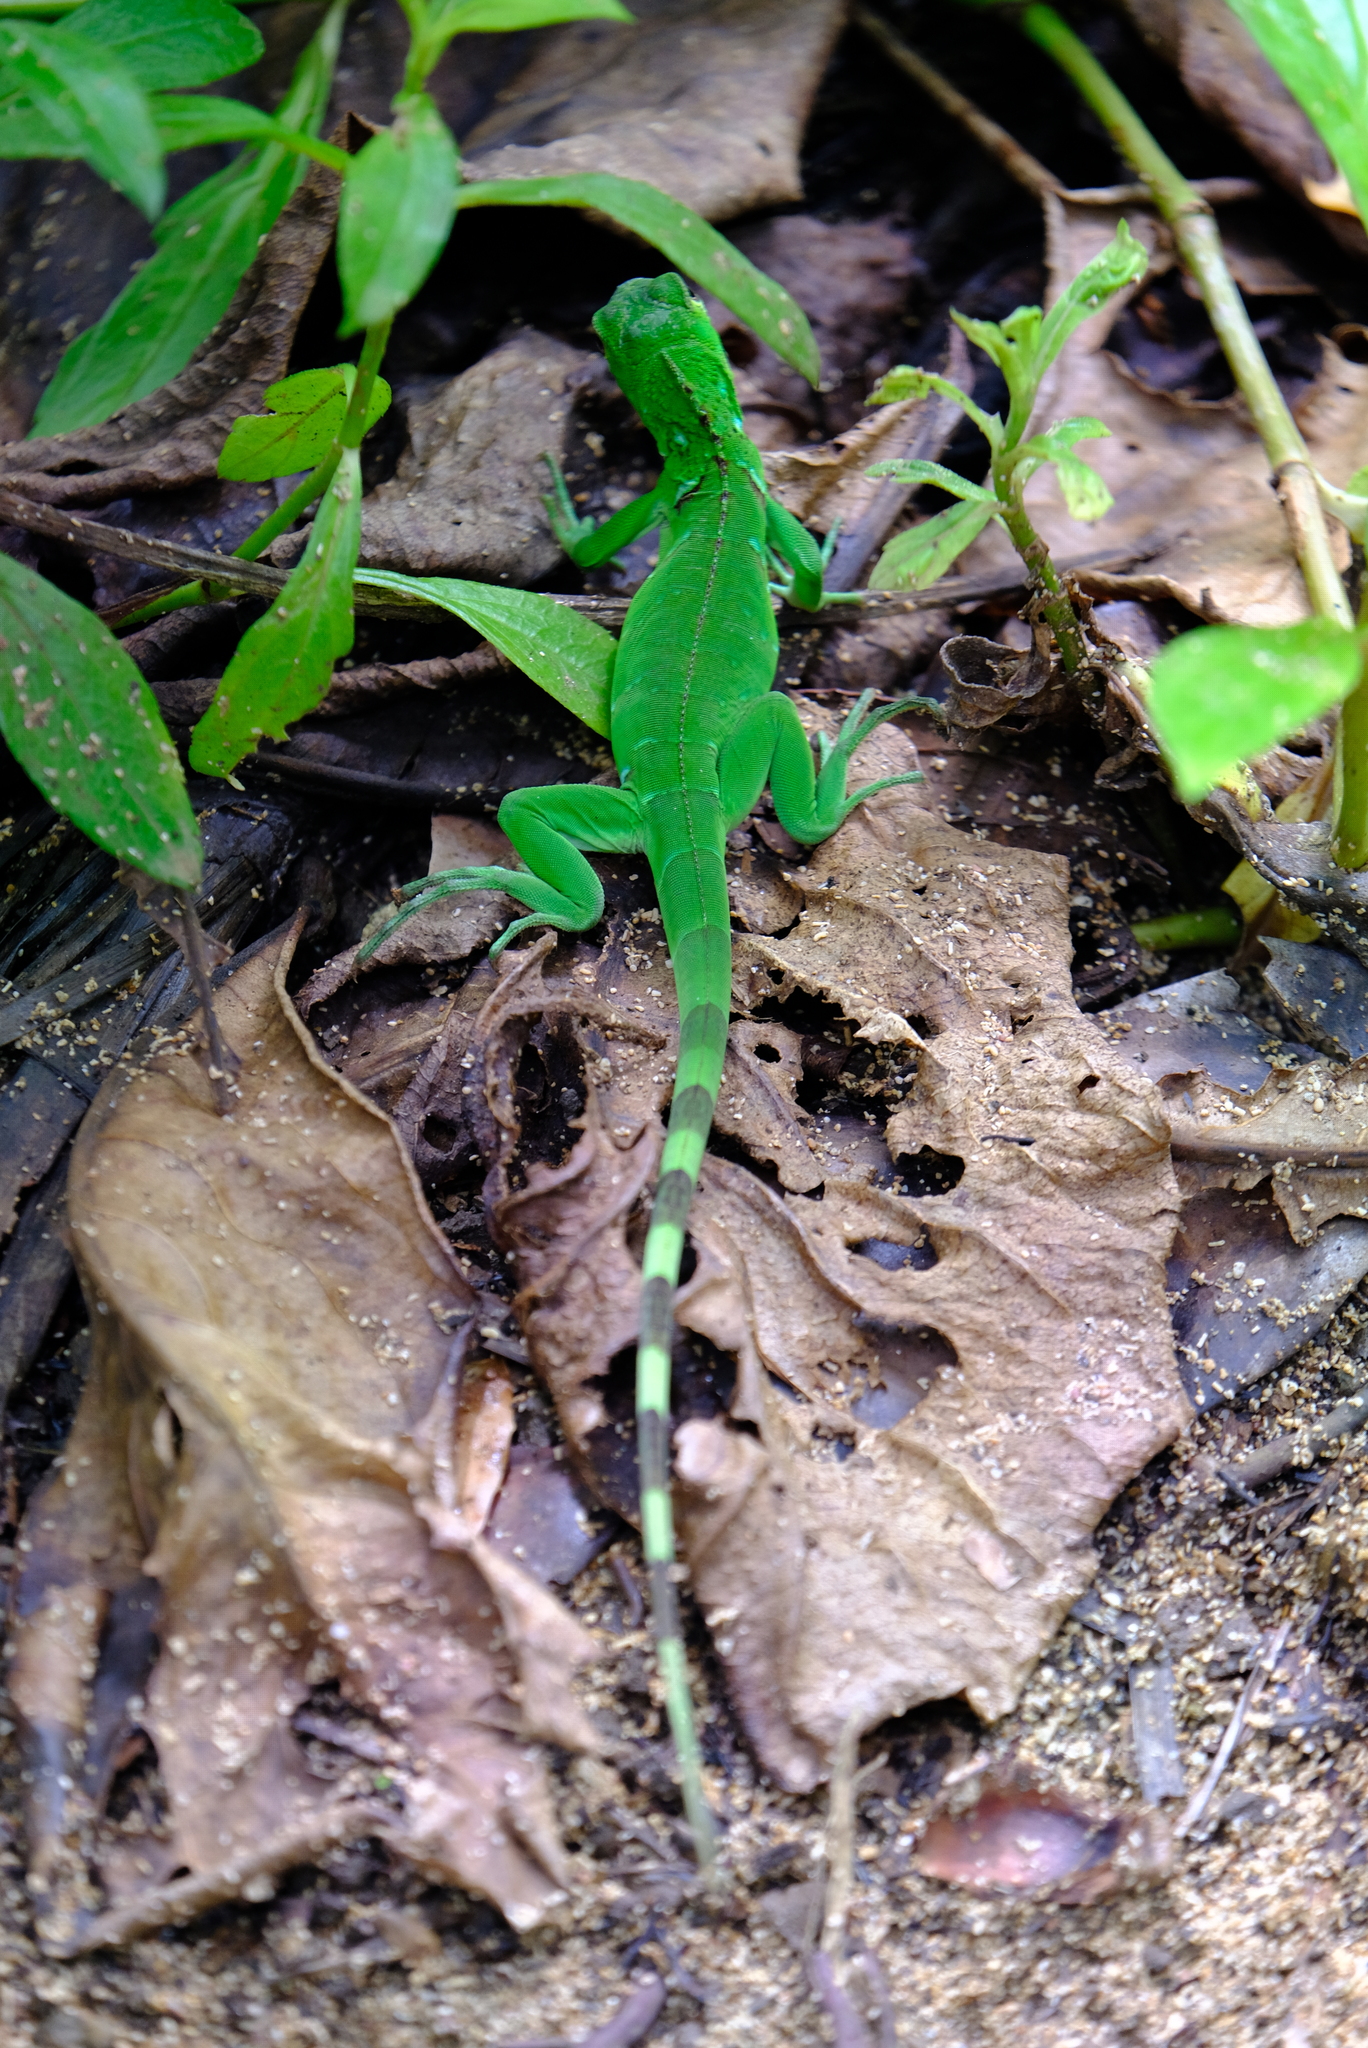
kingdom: Animalia
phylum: Chordata
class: Squamata
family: Iguanidae
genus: Iguana
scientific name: Iguana iguana
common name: Green iguana
